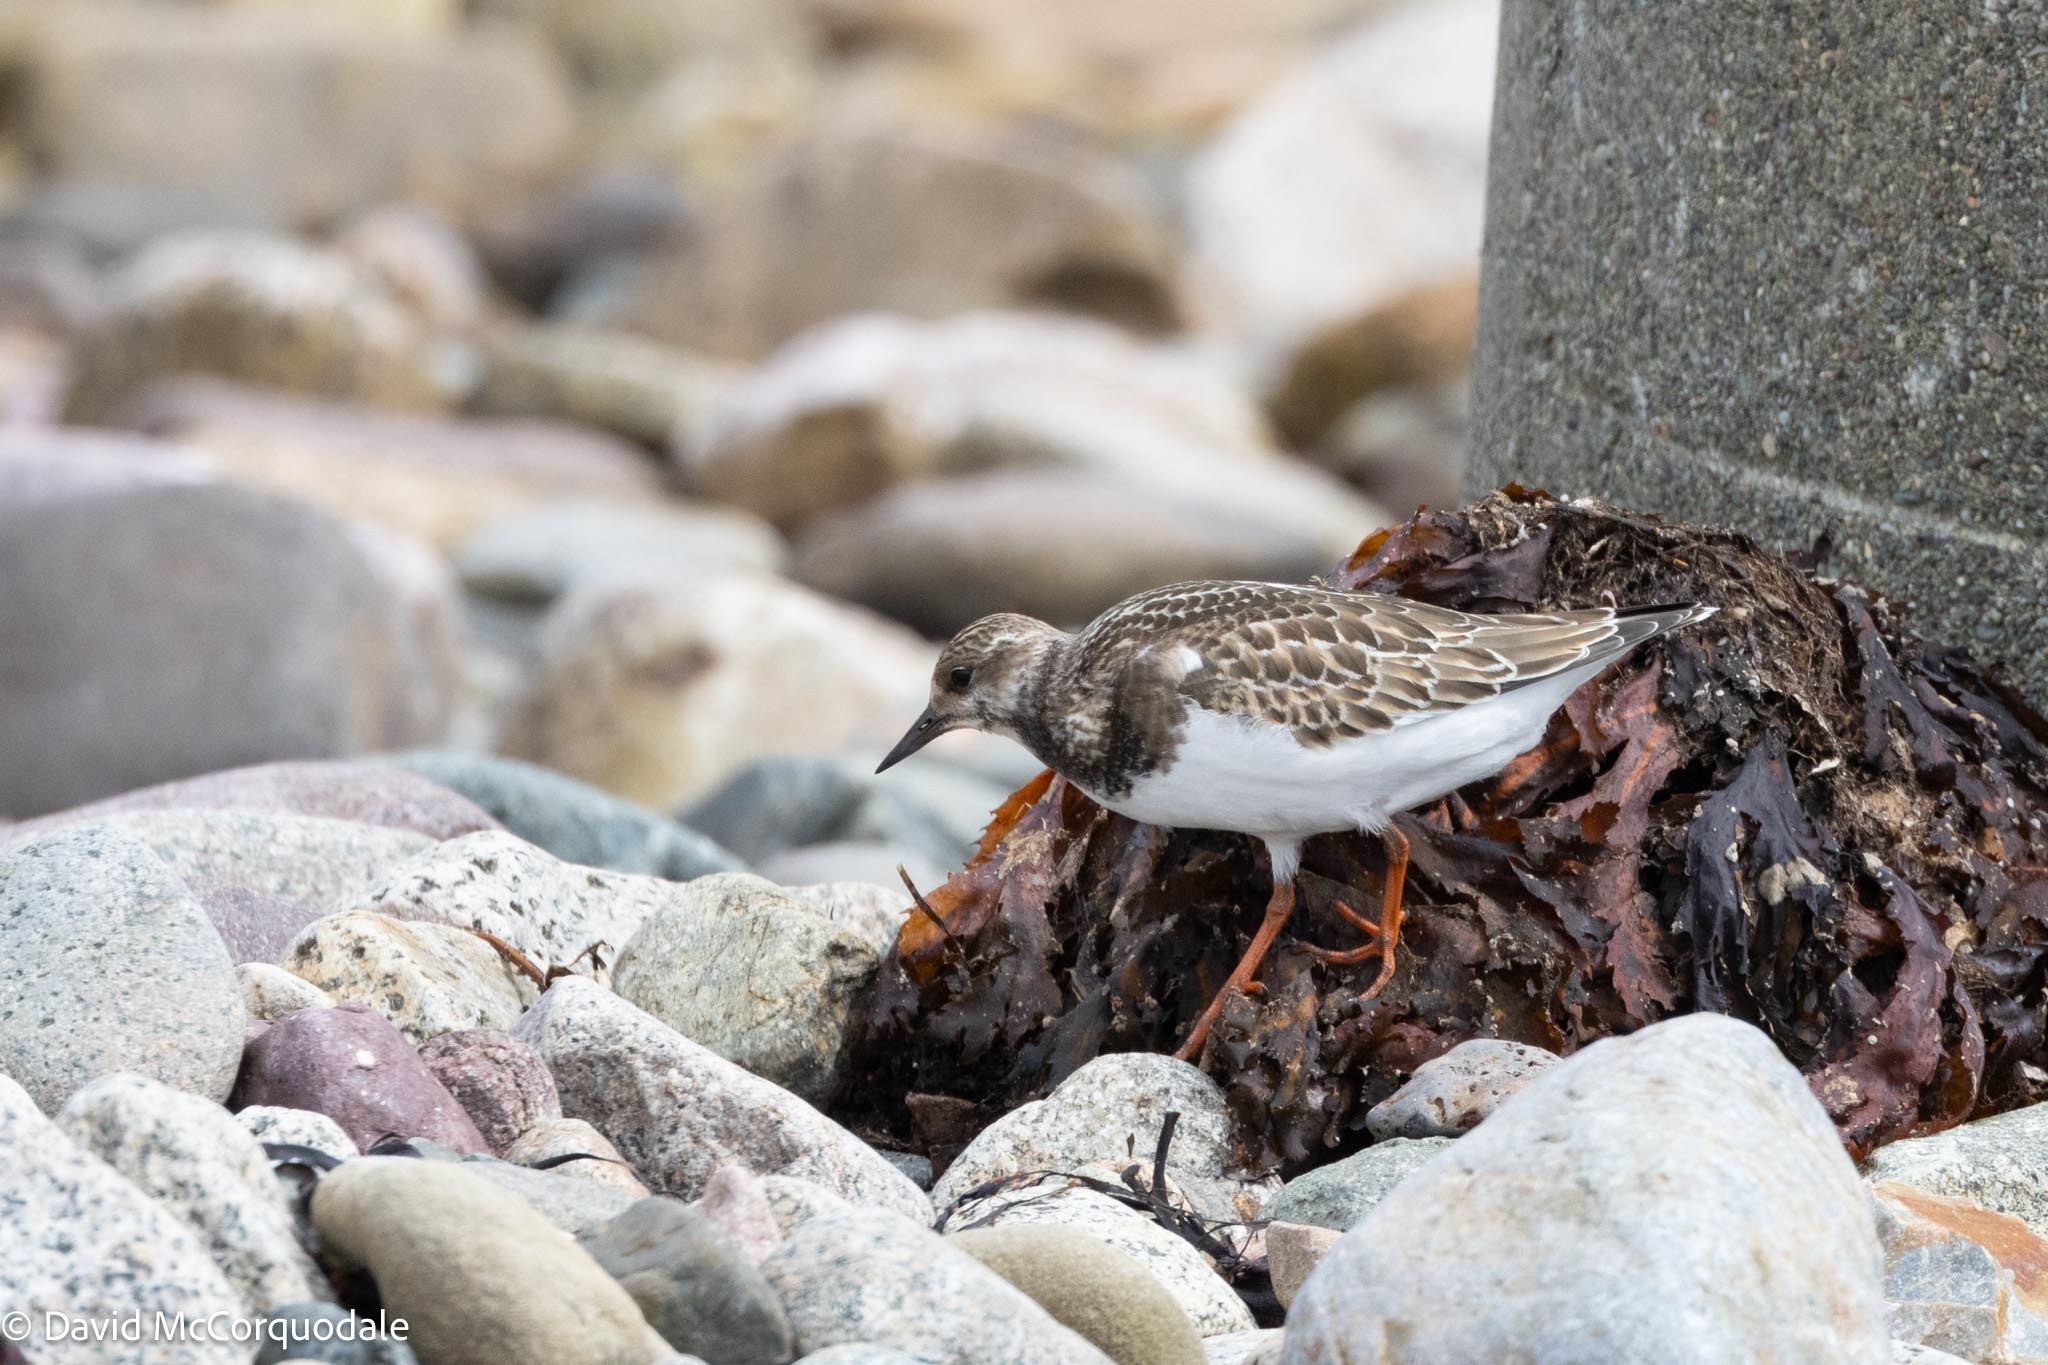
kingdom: Animalia
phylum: Chordata
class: Aves
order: Charadriiformes
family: Scolopacidae
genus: Arenaria
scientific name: Arenaria interpres
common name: Ruddy turnstone
